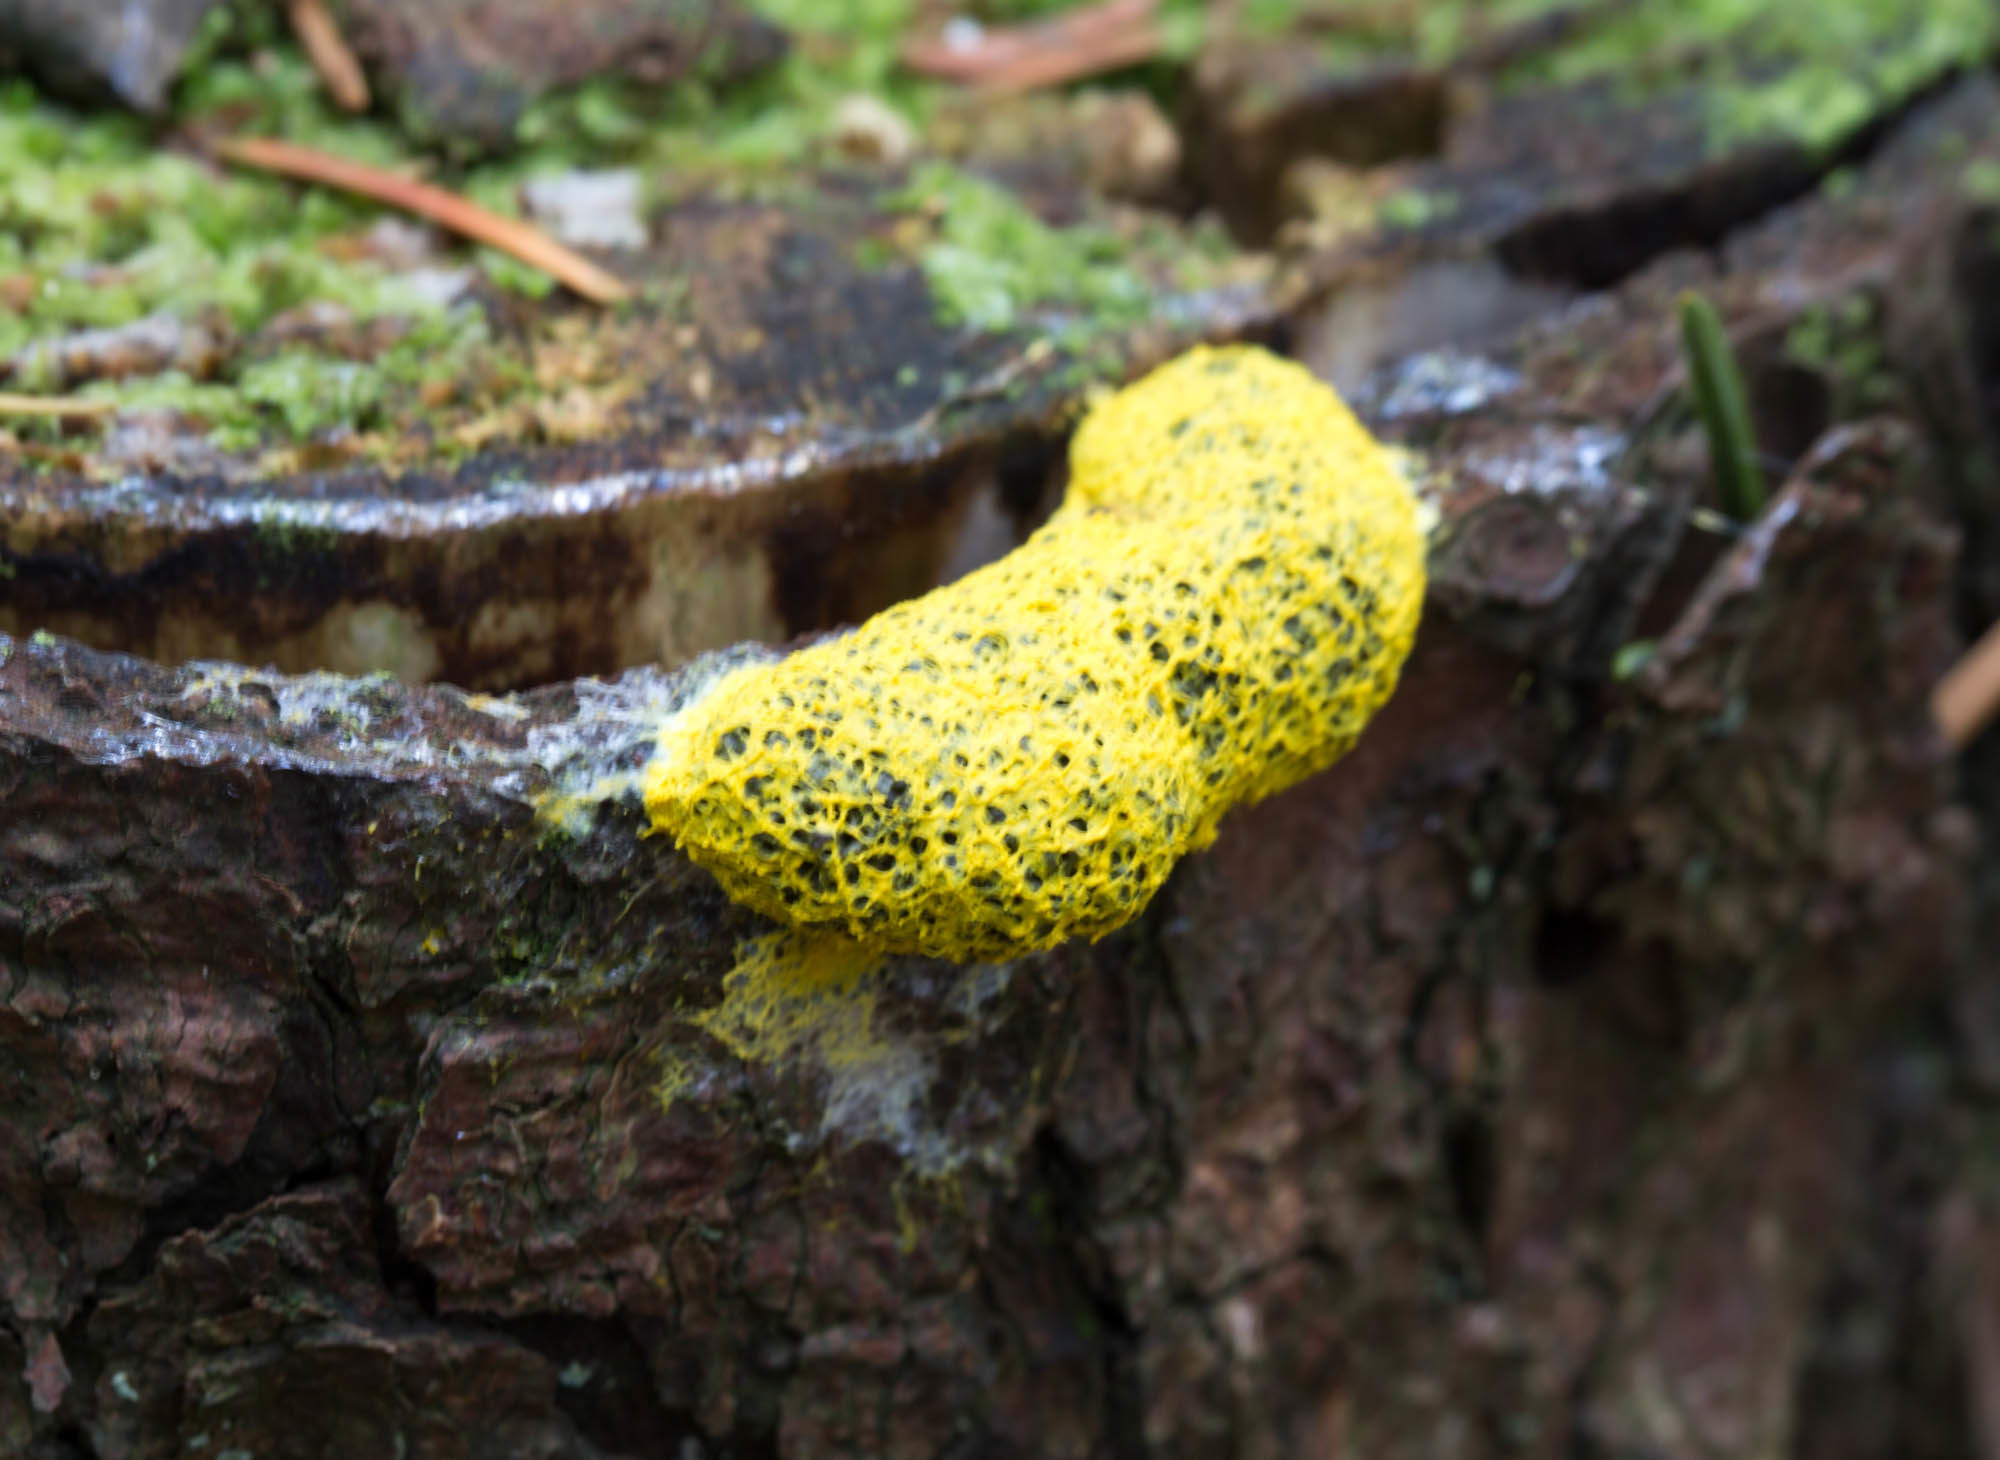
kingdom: Protozoa
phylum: Mycetozoa
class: Myxomycetes
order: Physarales
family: Physaraceae
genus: Fuligo
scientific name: Fuligo septica
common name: Dog vomit slime mold
